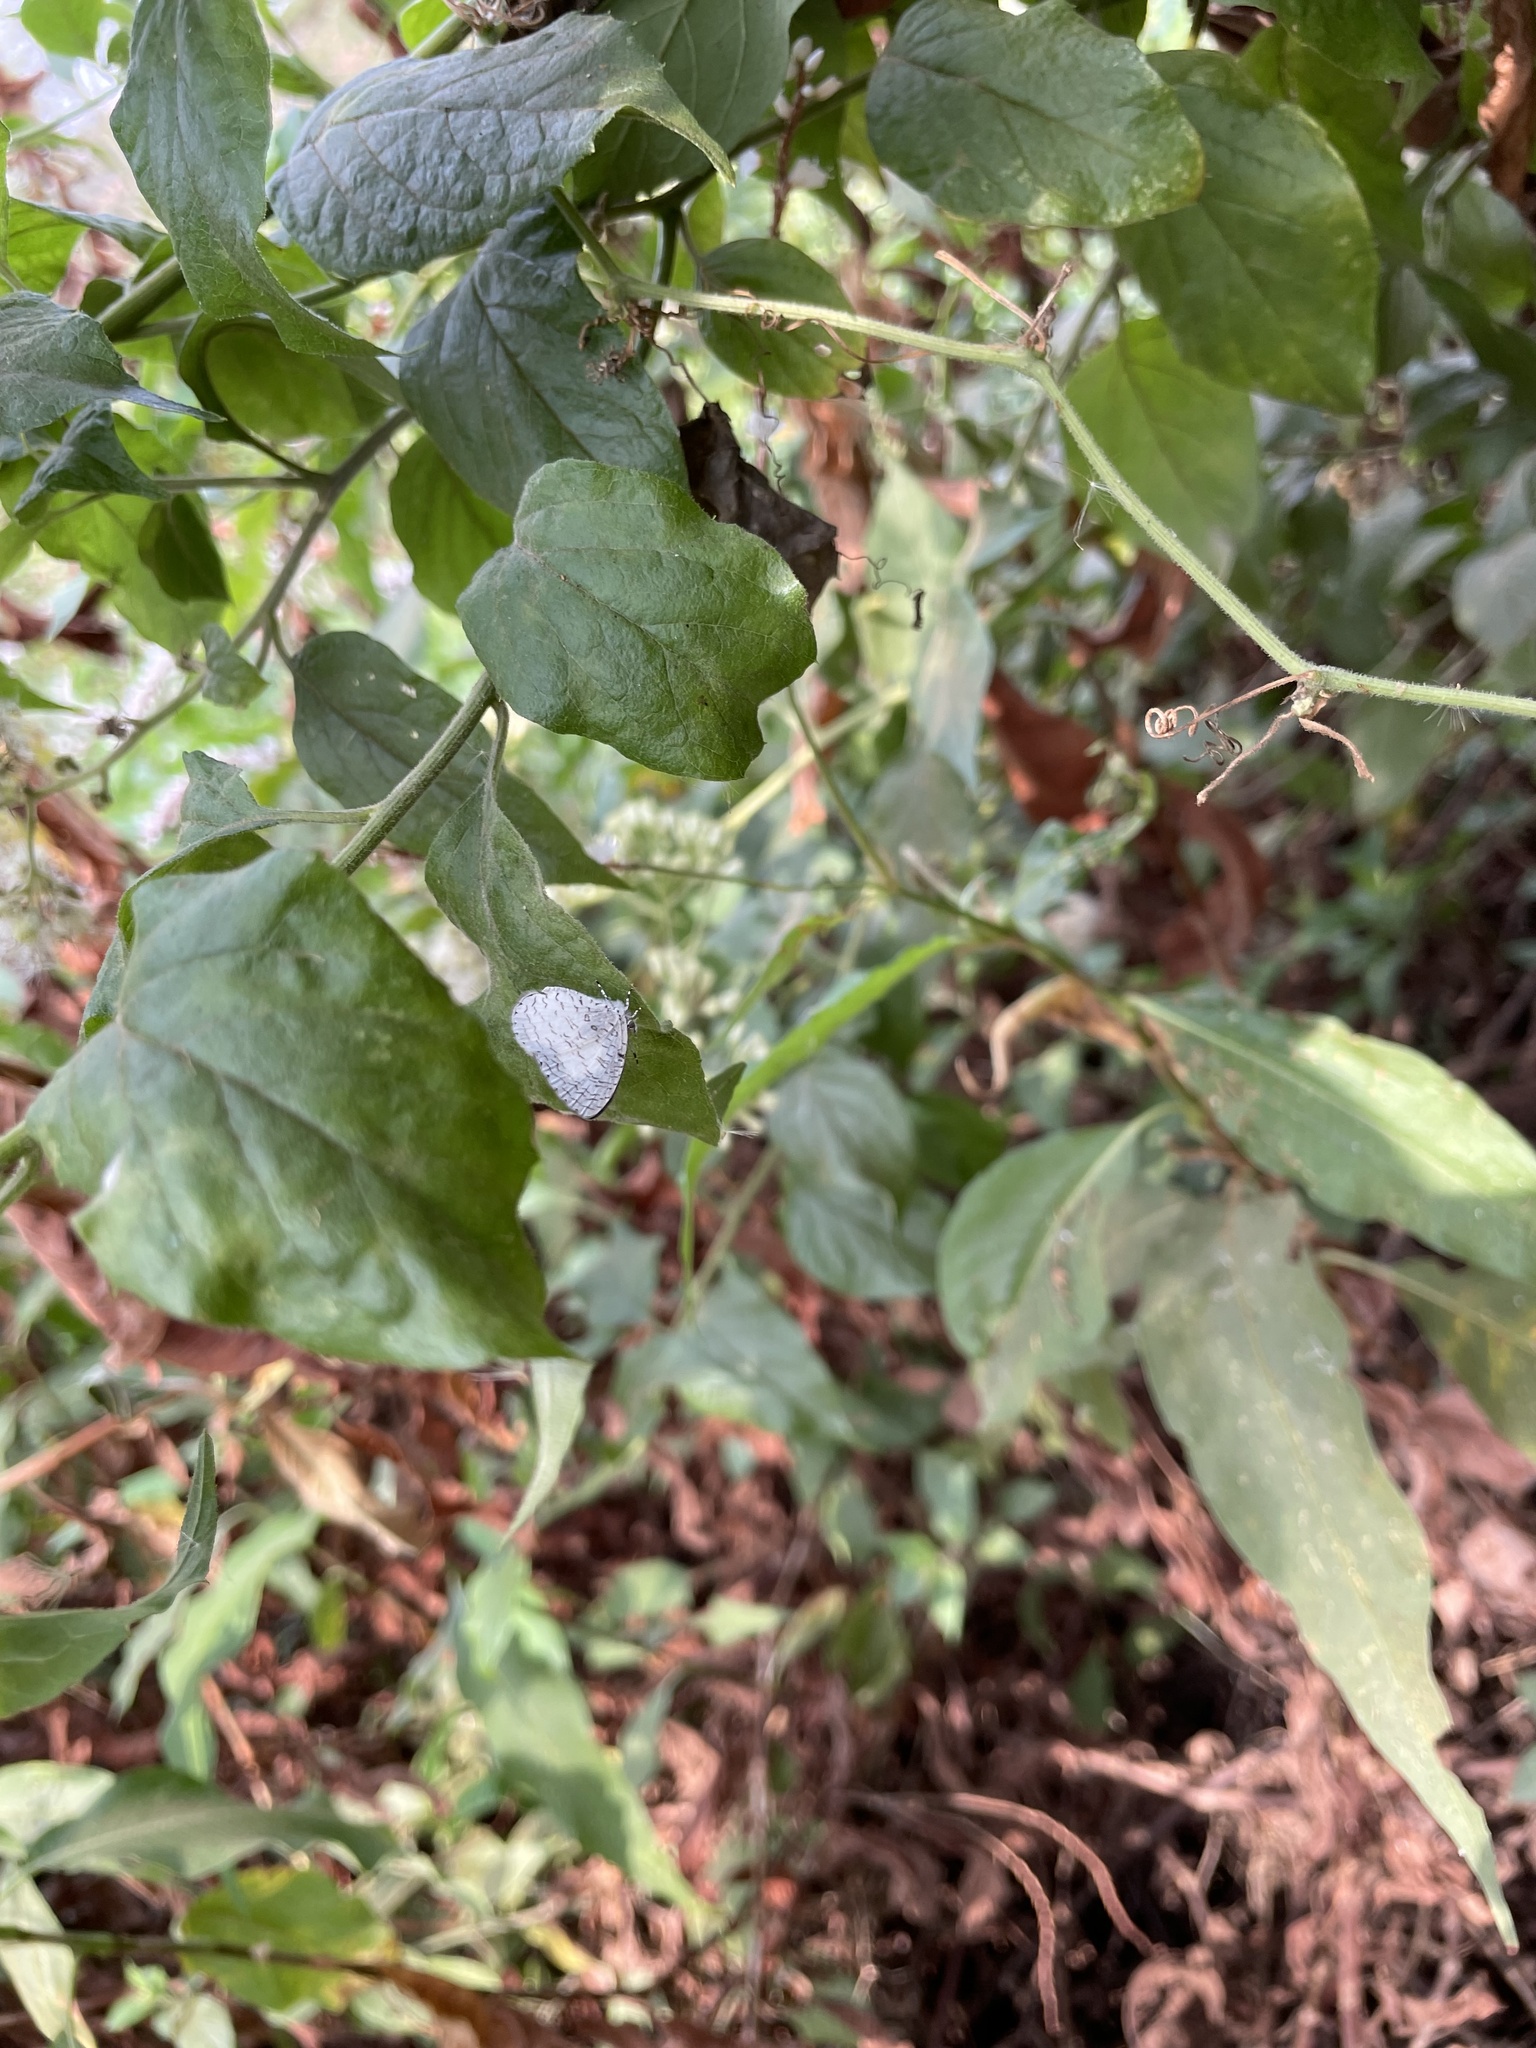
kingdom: Animalia
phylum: Arthropoda
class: Insecta
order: Lepidoptera
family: Lycaenidae
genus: Spalgis
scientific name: Spalgis lemolea
